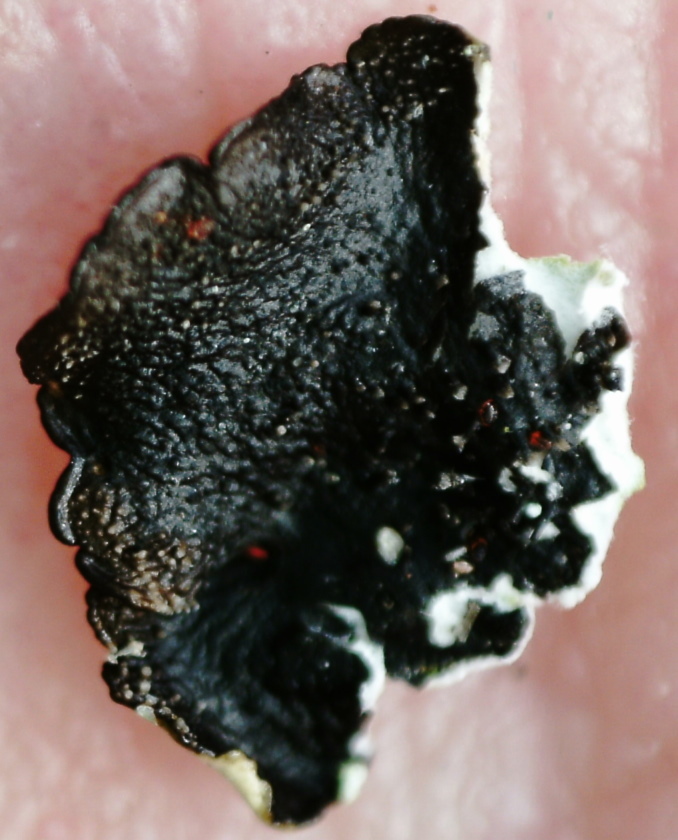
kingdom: Fungi
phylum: Ascomycota
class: Lecanoromycetes
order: Lecanorales
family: Parmeliaceae
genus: Xanthoparmelia
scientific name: Xanthoparmelia conspersa
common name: Peppered rock shield
